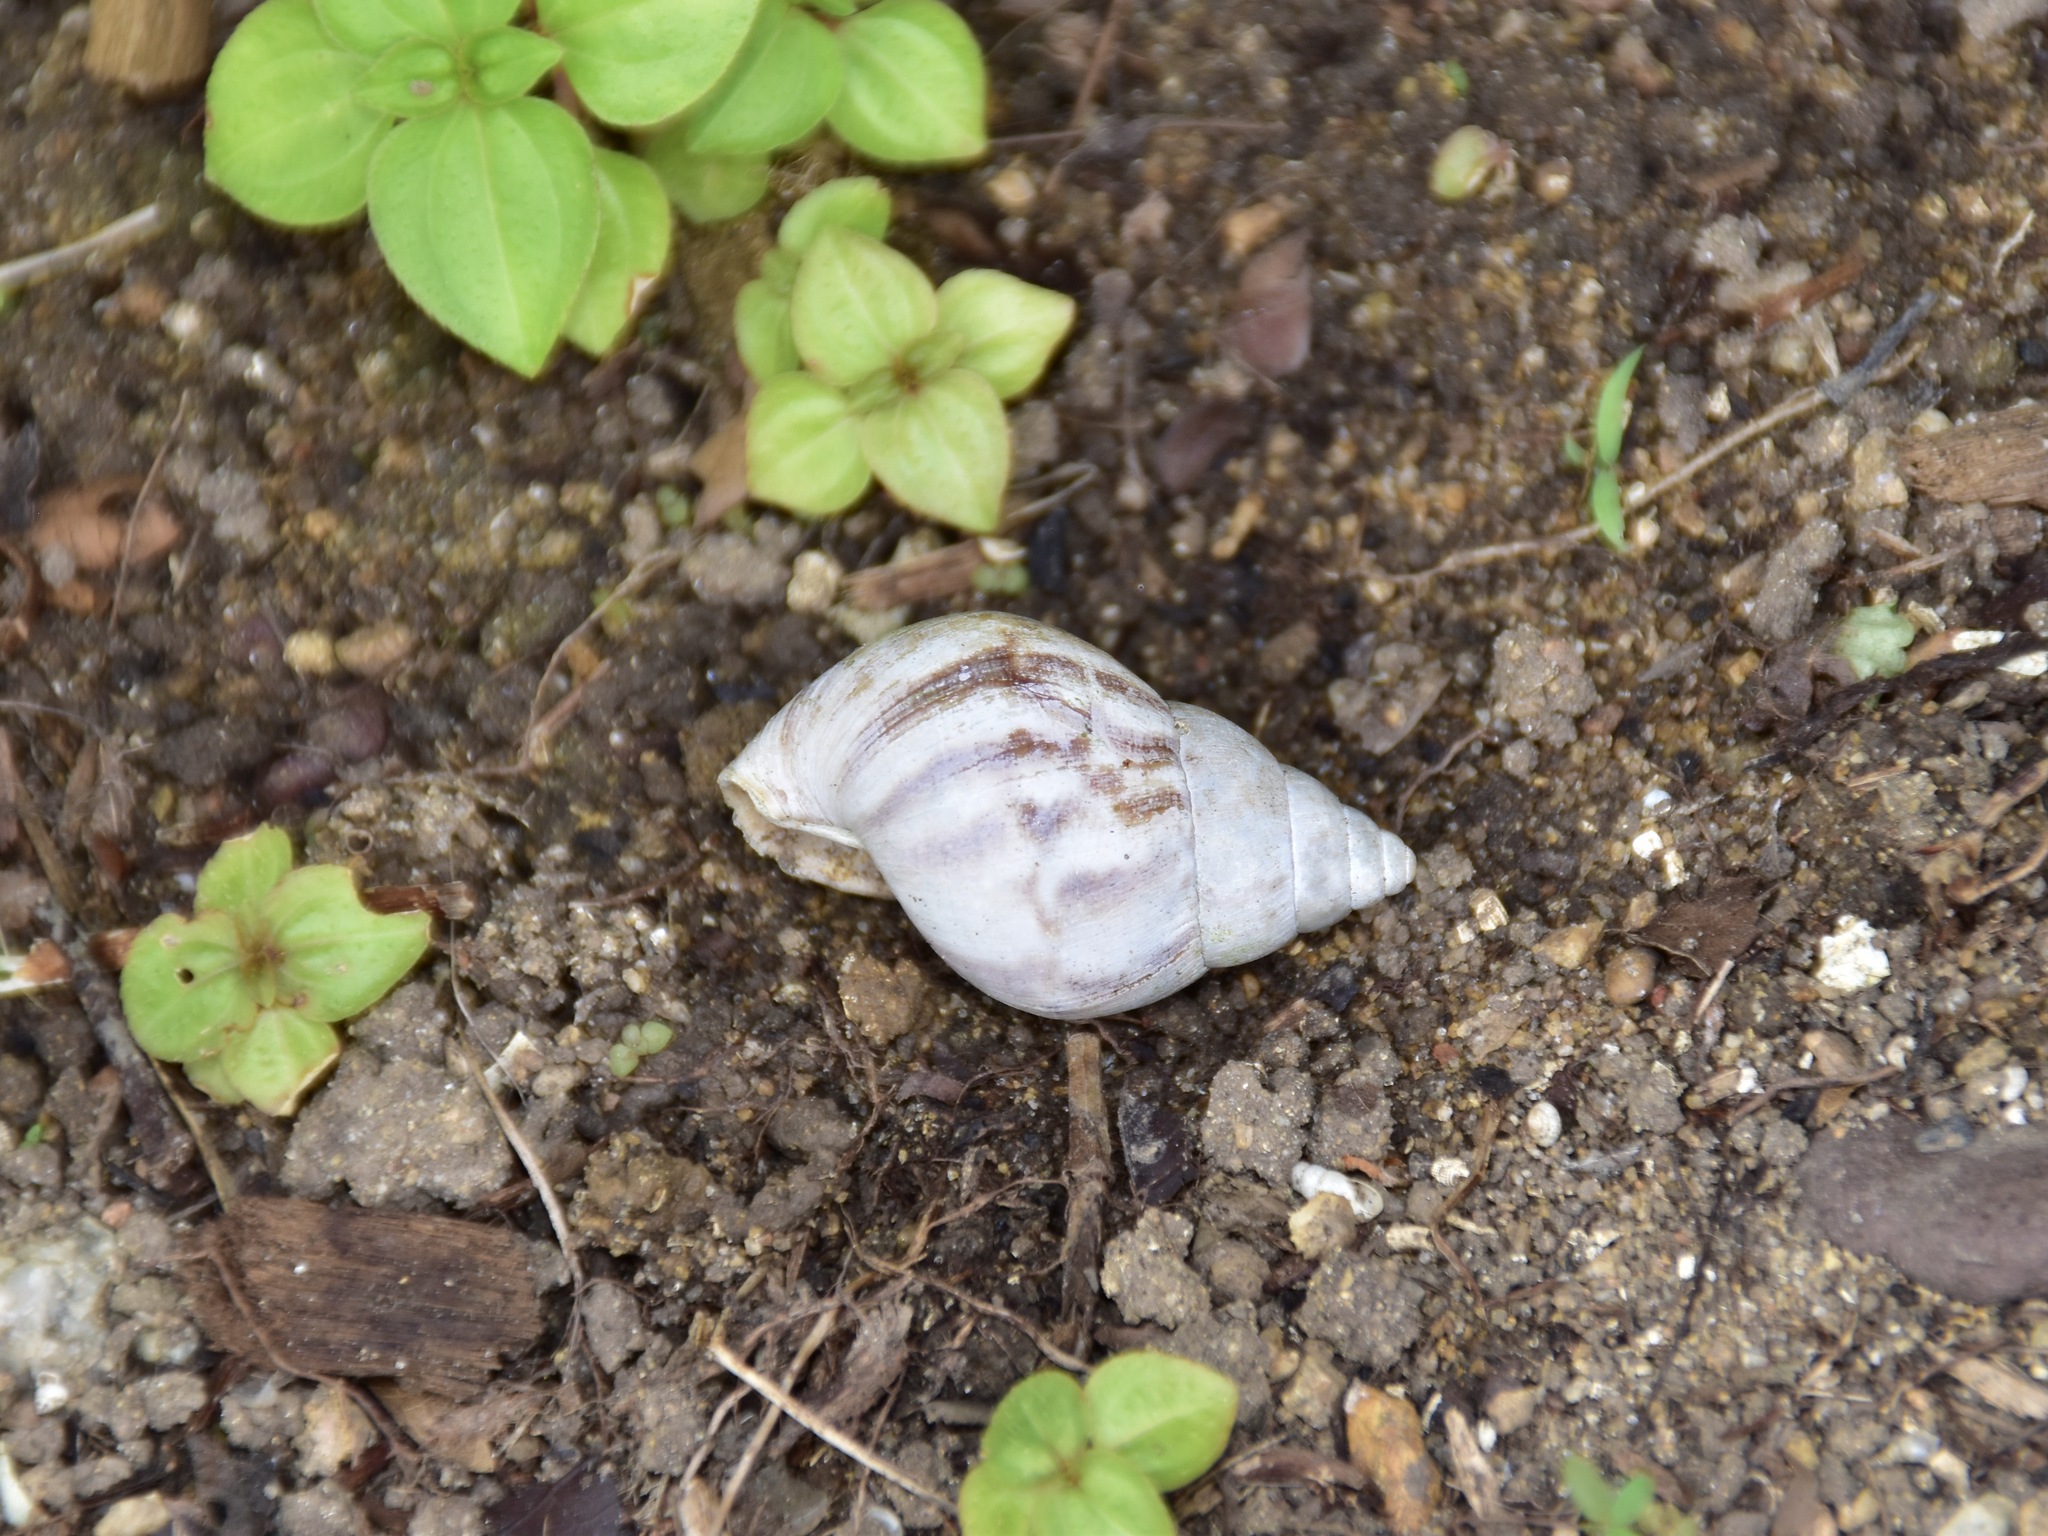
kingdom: Animalia
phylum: Mollusca
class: Gastropoda
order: Stylommatophora
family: Achatinidae
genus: Lissachatina
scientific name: Lissachatina fulica
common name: Giant african snail
